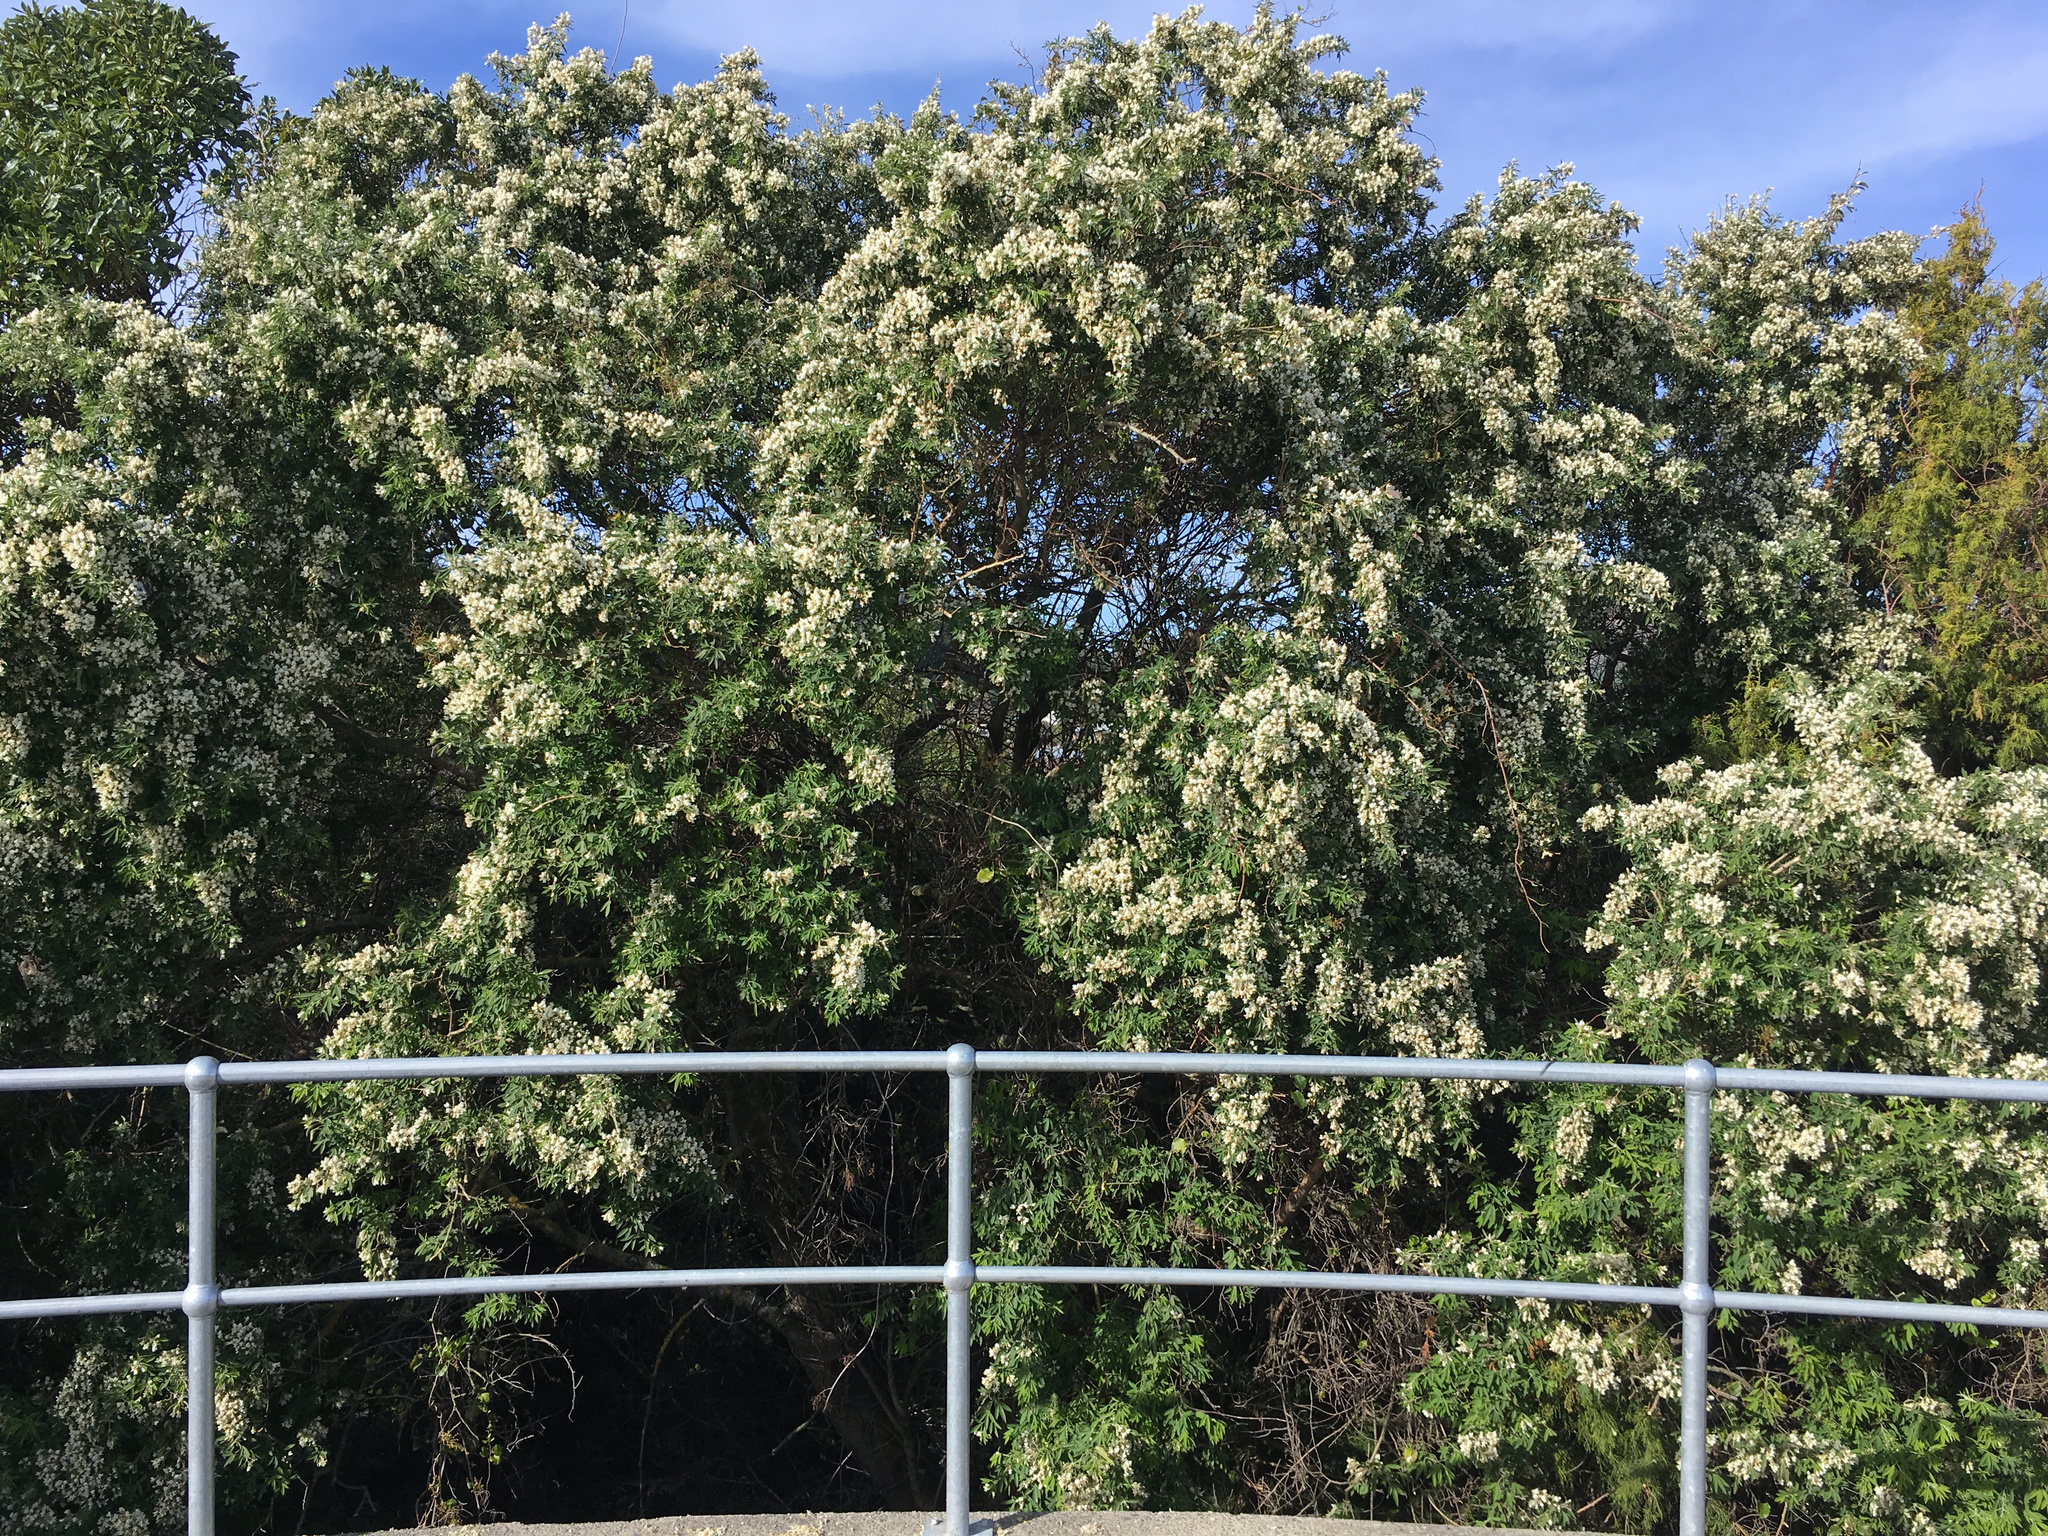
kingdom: Plantae
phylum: Tracheophyta
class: Magnoliopsida
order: Fabales
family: Fabaceae
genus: Chamaecytisus
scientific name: Chamaecytisus prolifer
